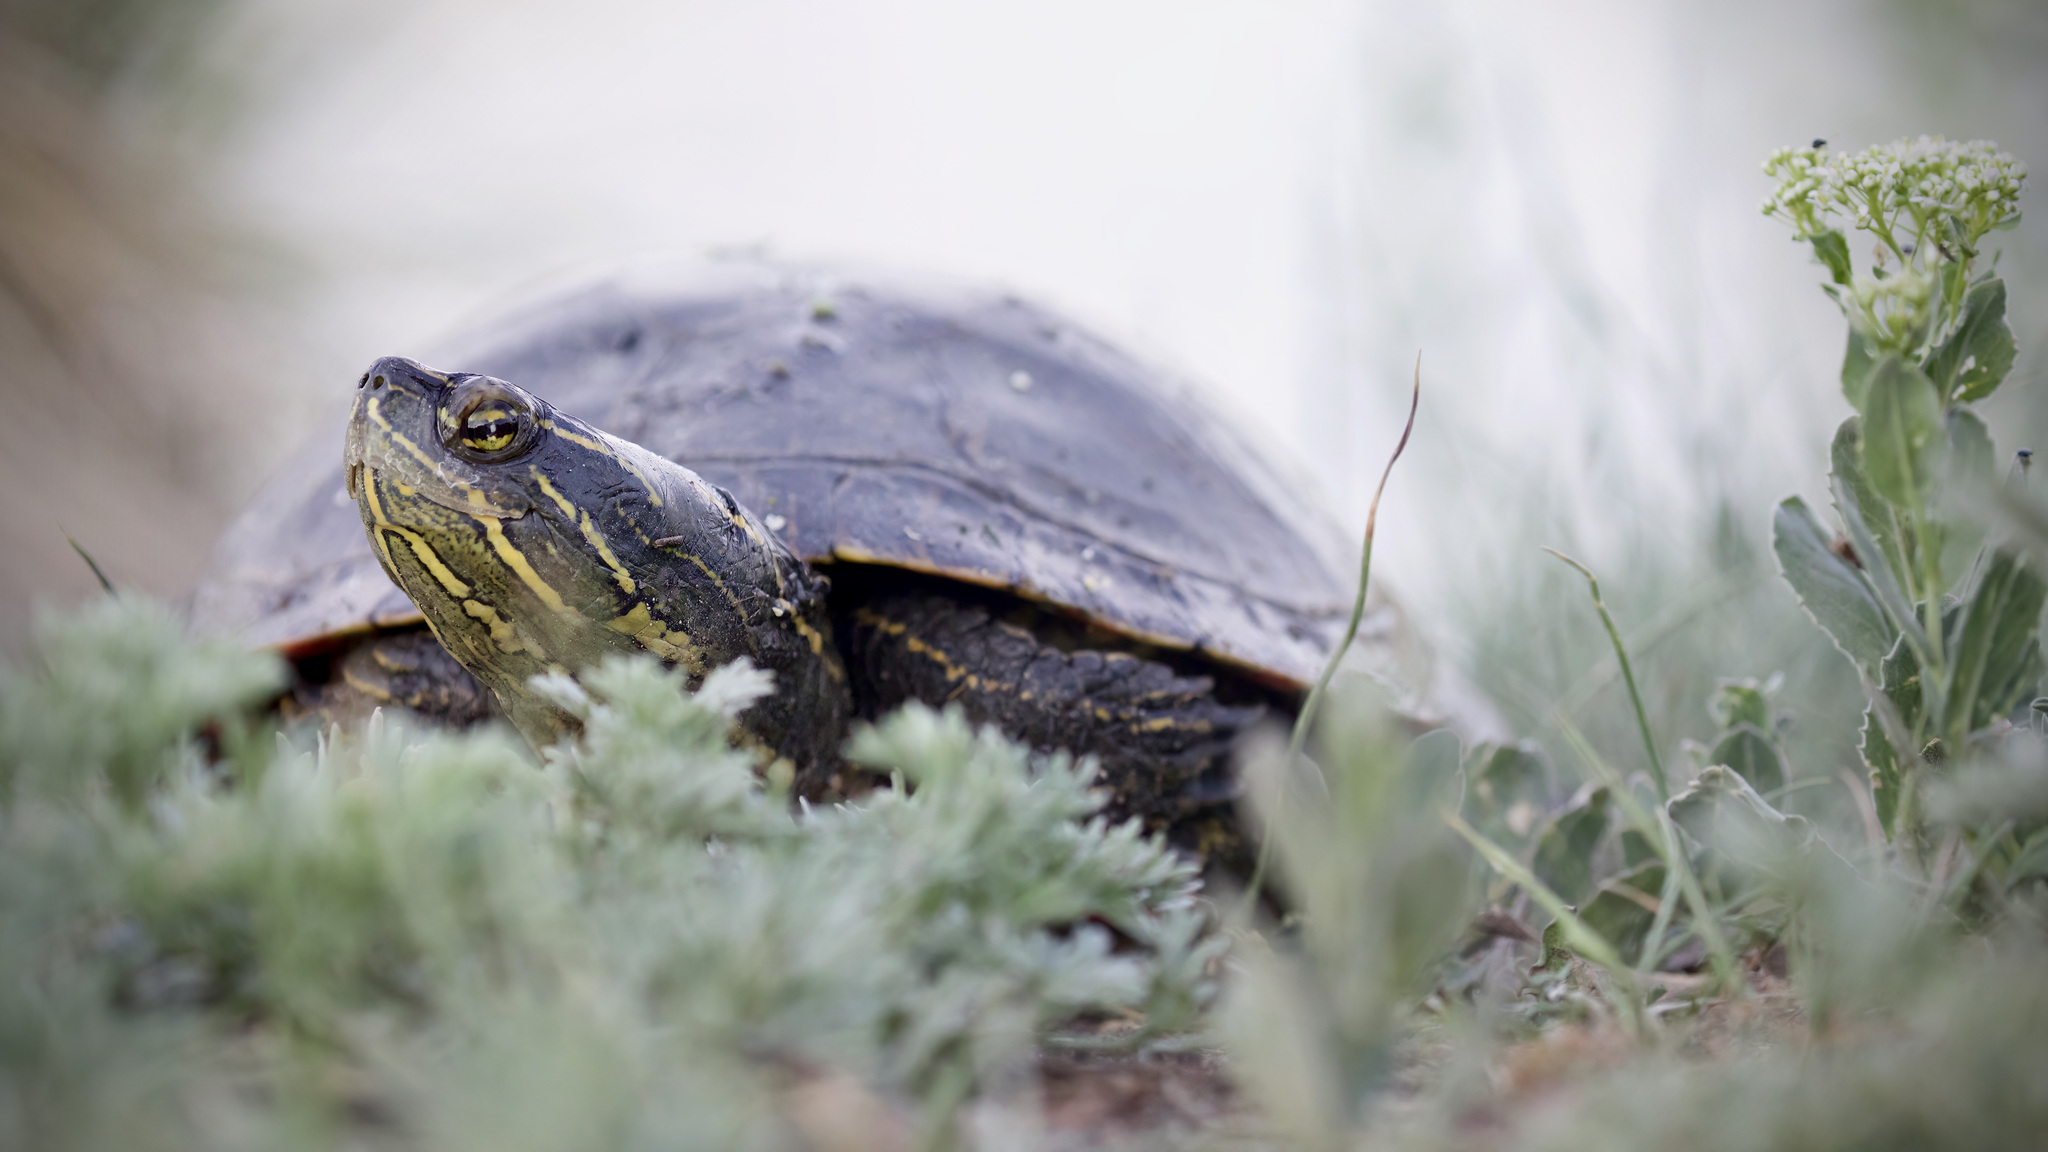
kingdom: Animalia
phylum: Chordata
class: Testudines
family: Emydidae
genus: Chrysemys
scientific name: Chrysemys picta
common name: Painted turtle
